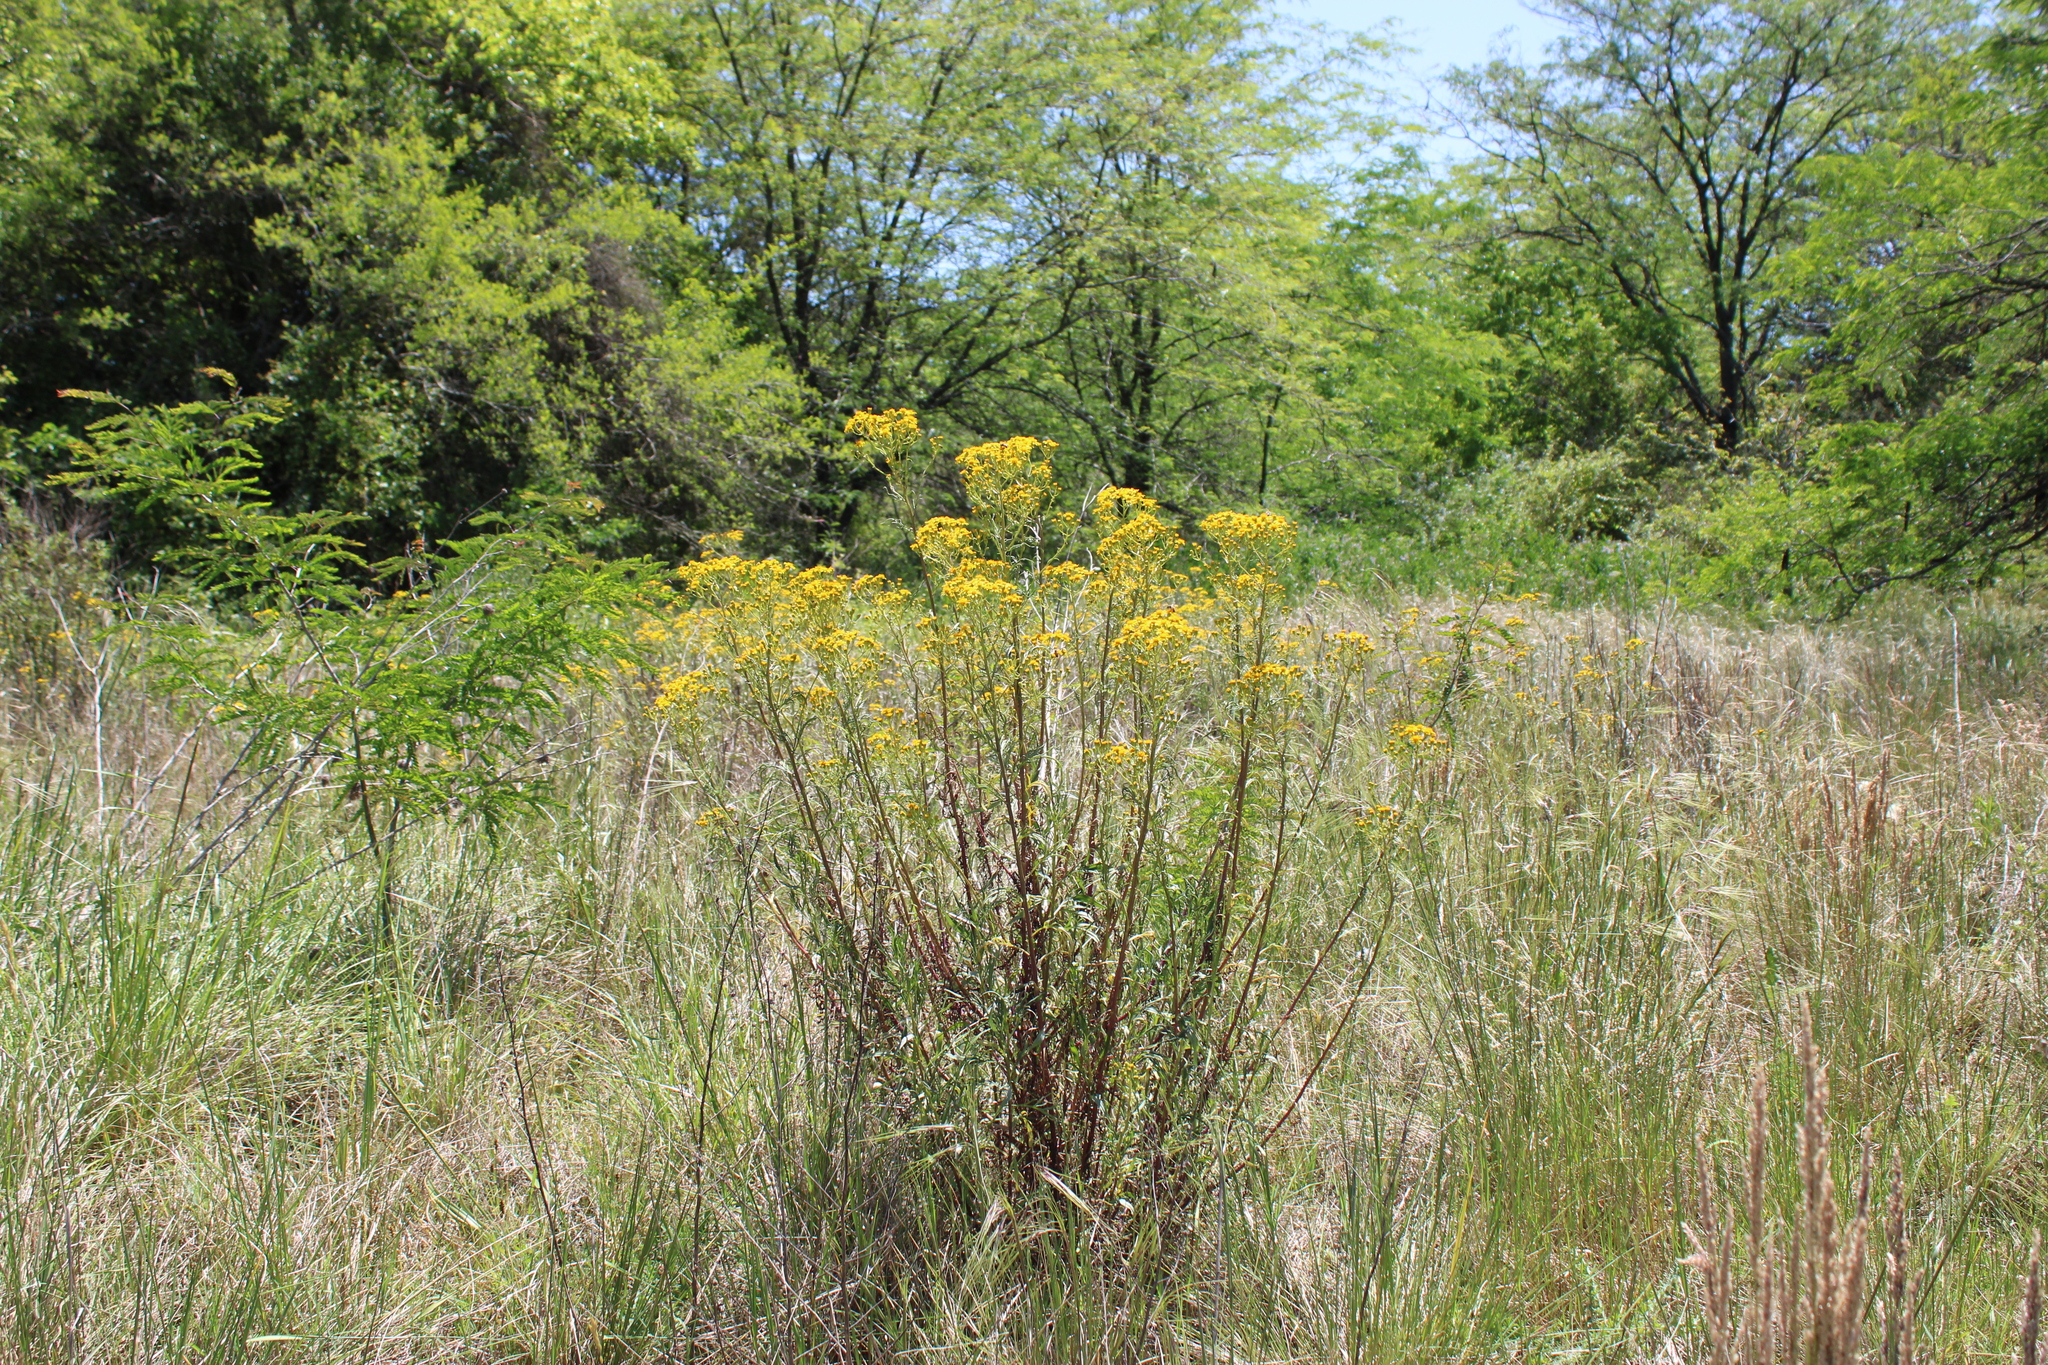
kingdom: Plantae
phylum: Tracheophyta
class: Magnoliopsida
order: Asterales
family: Asteraceae
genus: Senecio
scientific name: Senecio brasiliensis
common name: Hemp-leaf ragwort
